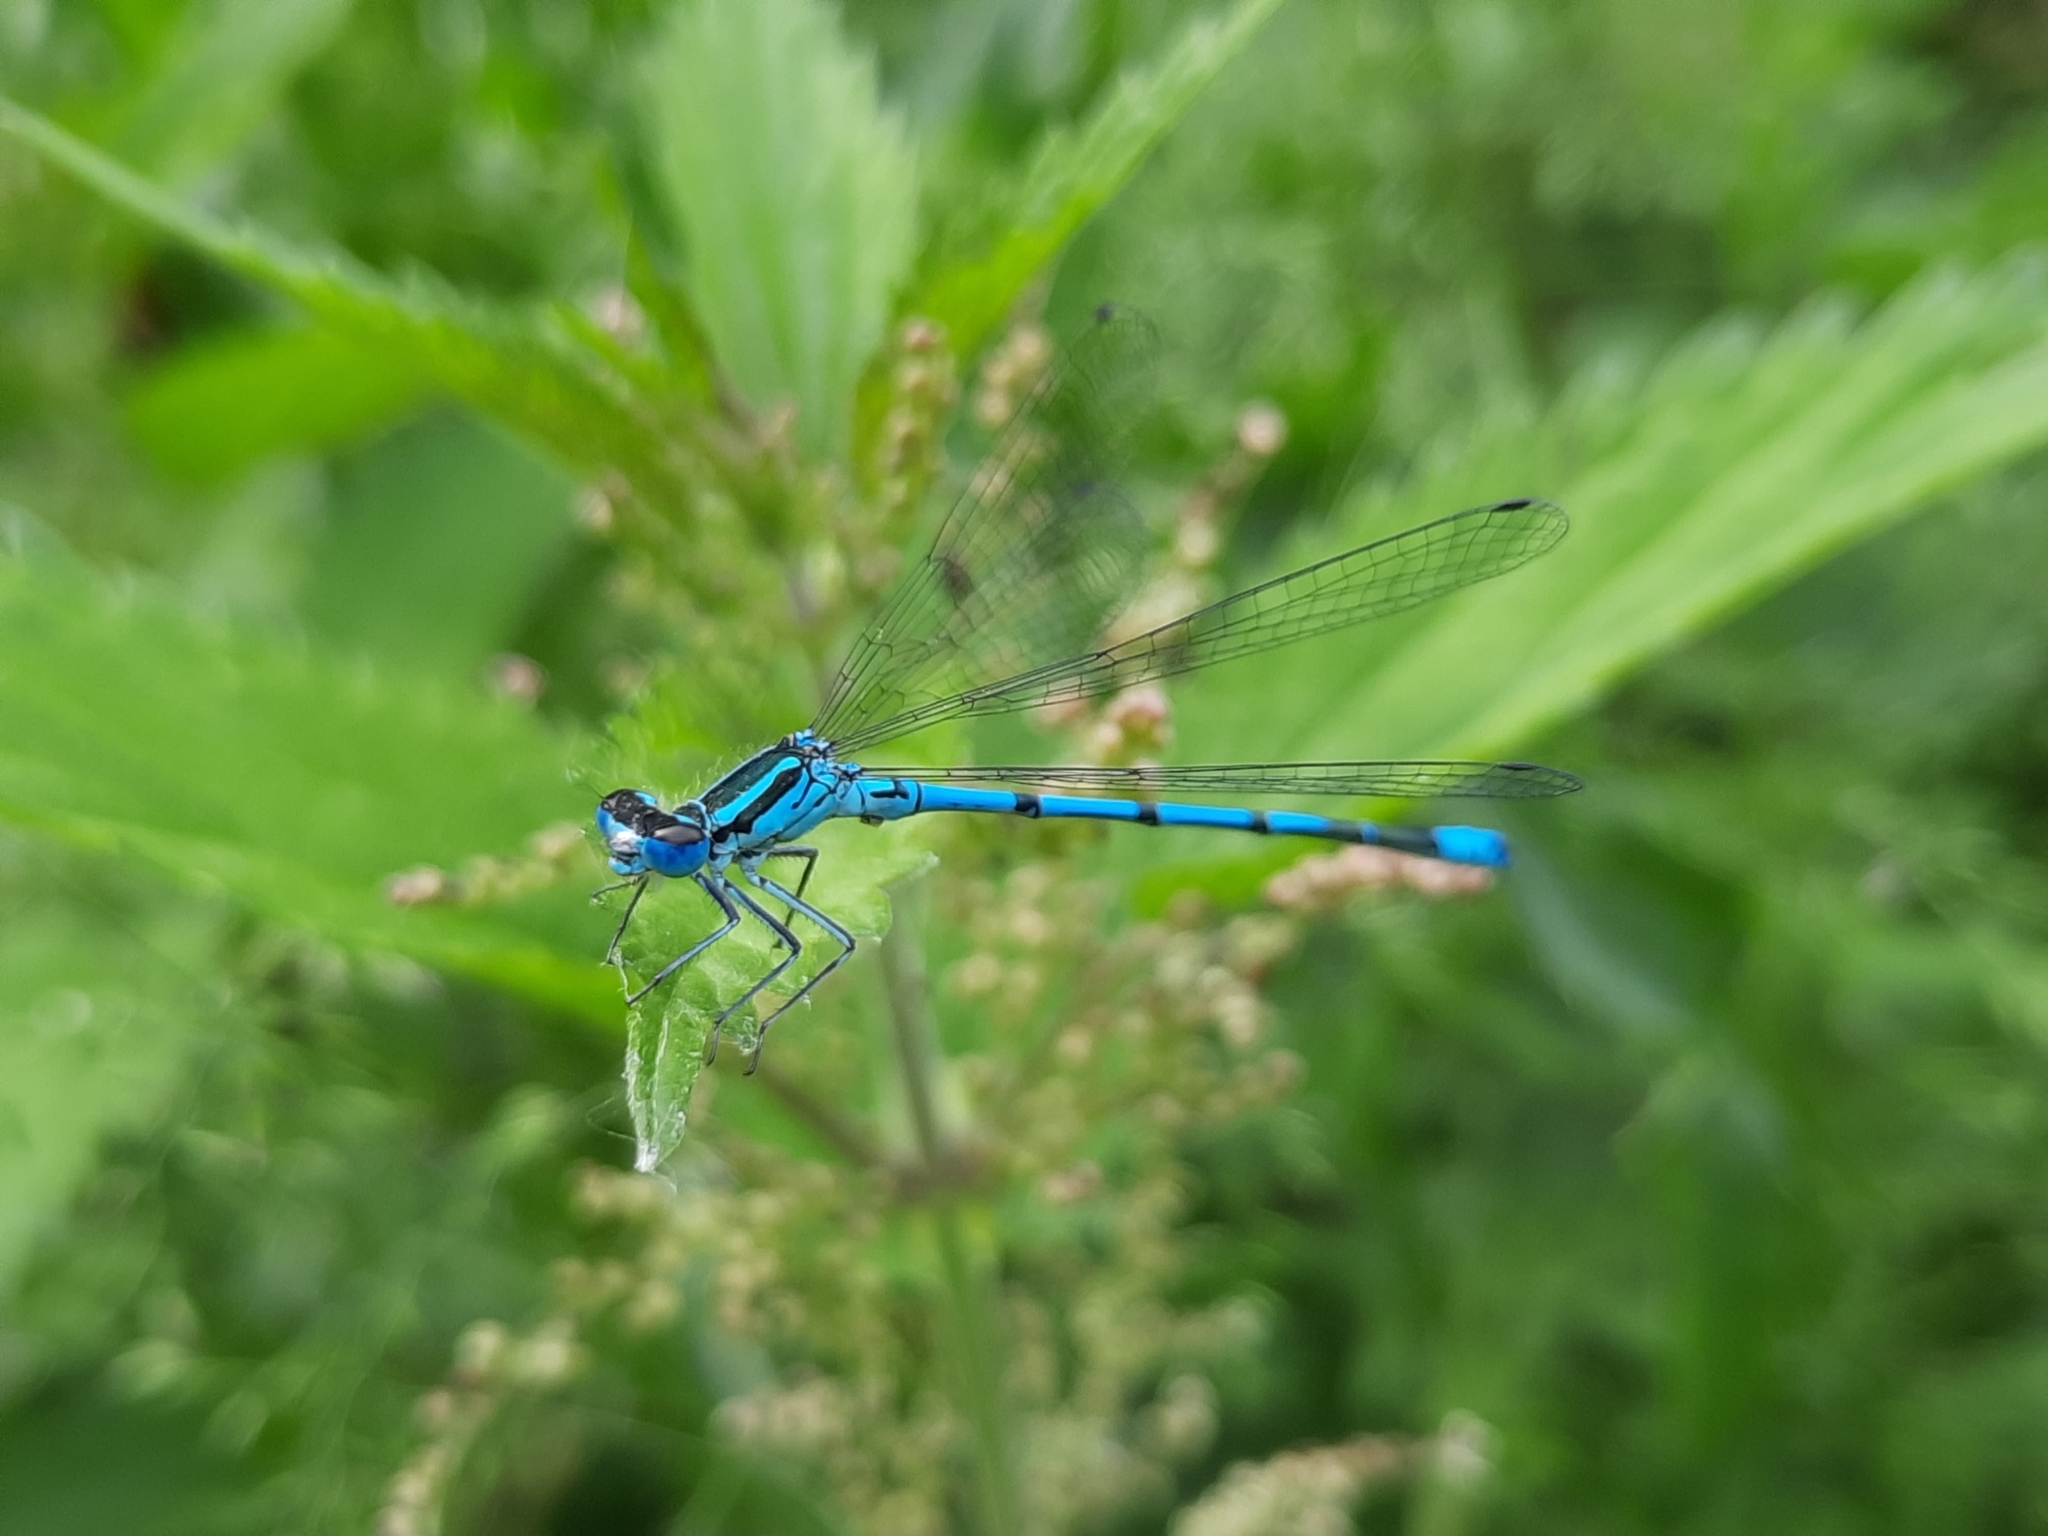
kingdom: Animalia
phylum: Arthropoda
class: Insecta
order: Odonata
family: Coenagrionidae
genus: Coenagrion
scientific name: Coenagrion puella
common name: Azure damselfly
